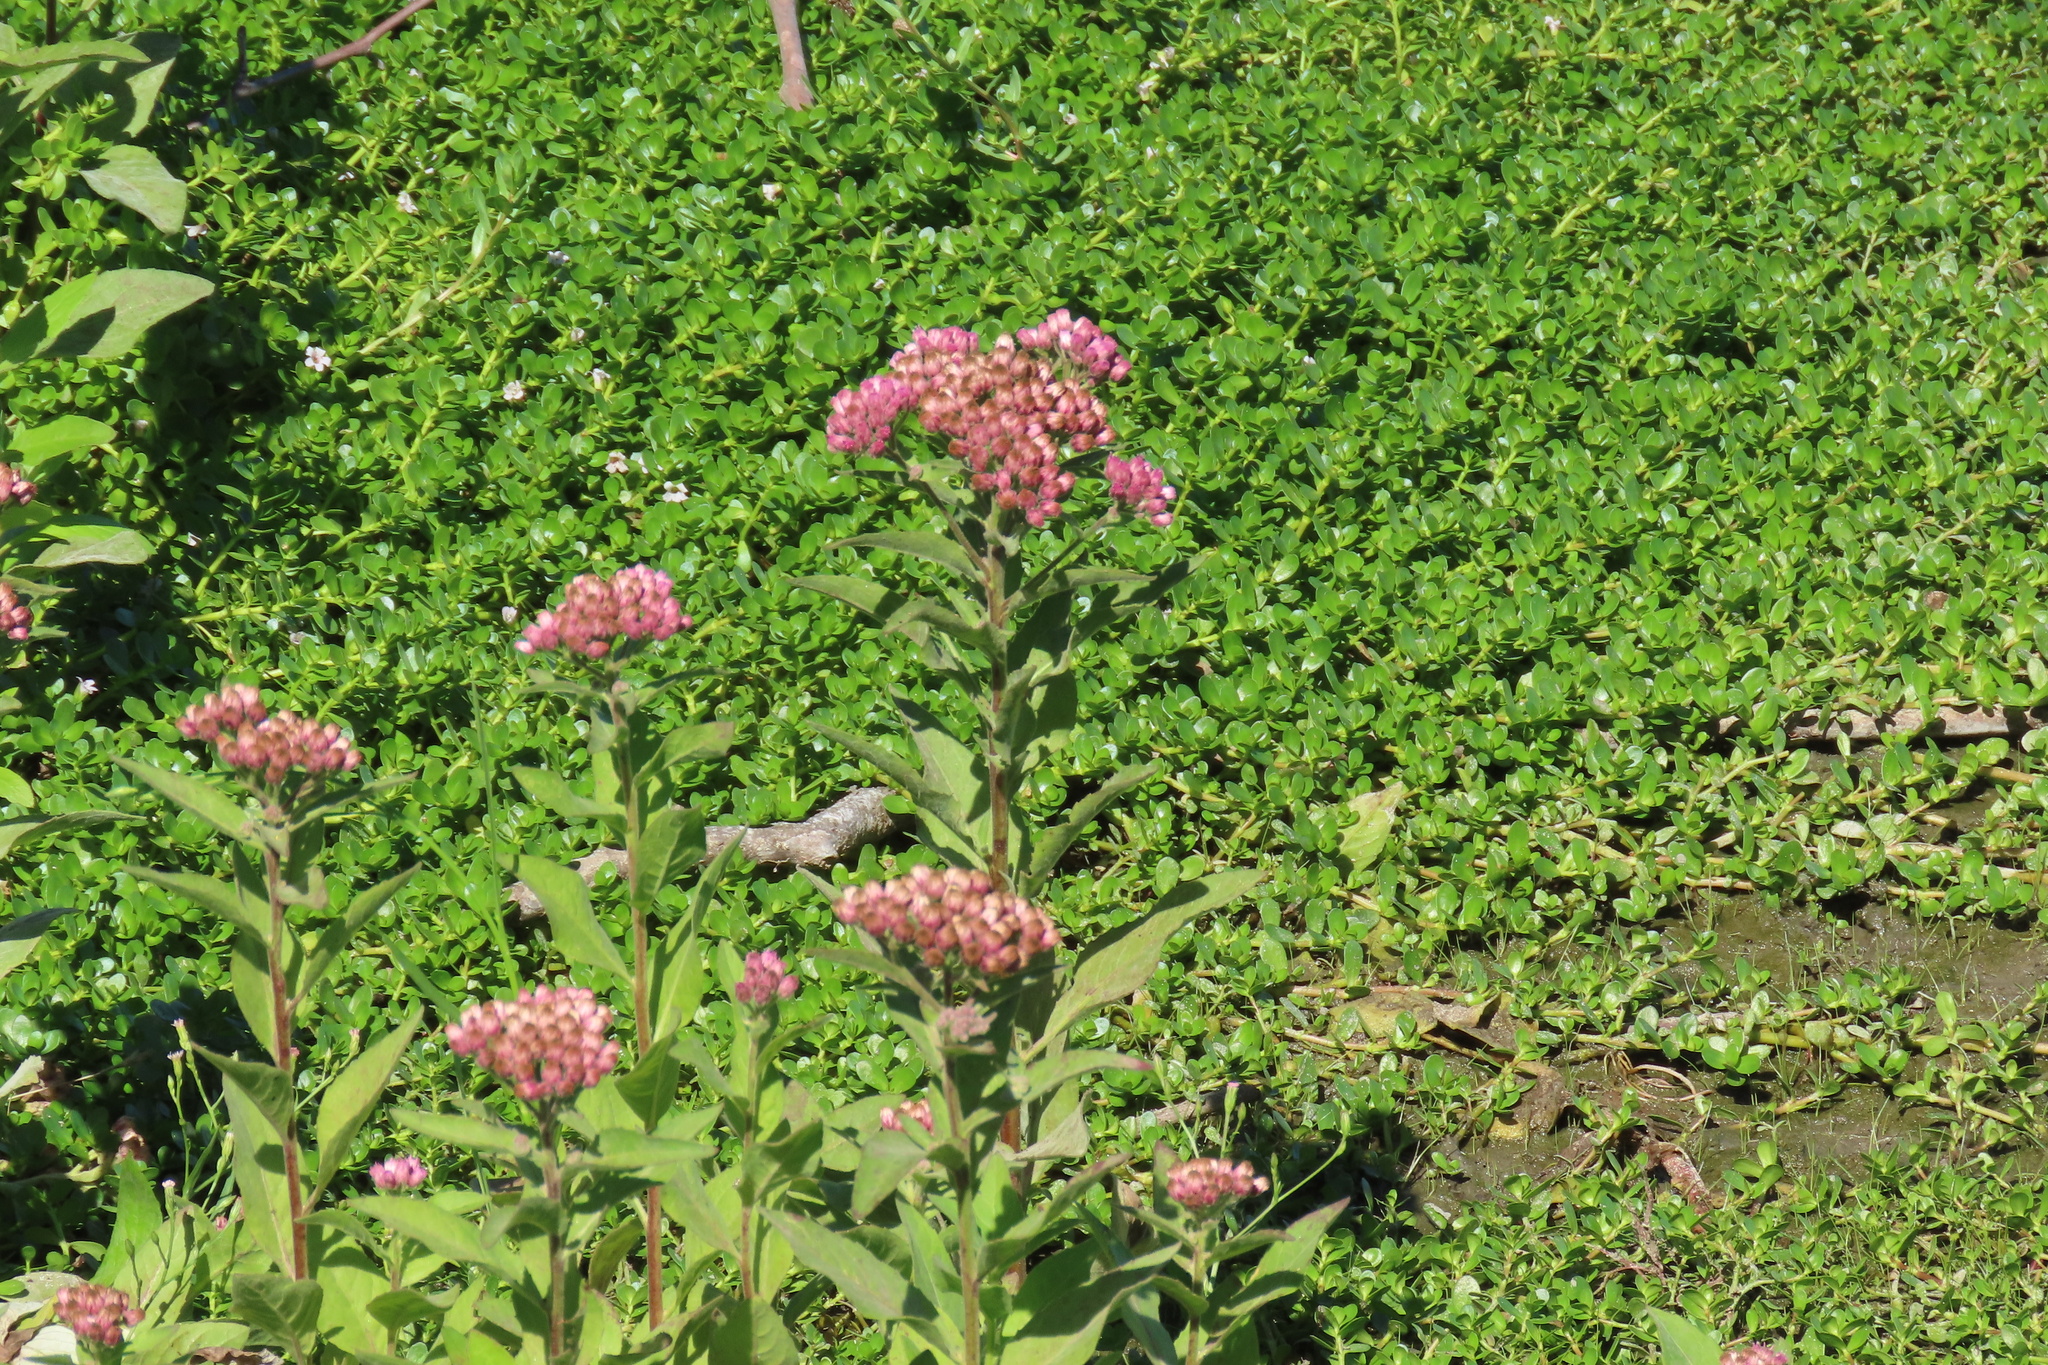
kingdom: Plantae
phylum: Tracheophyta
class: Magnoliopsida
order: Asterales
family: Asteraceae
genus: Pluchea
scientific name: Pluchea odorata
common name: Saltmarsh fleabane
